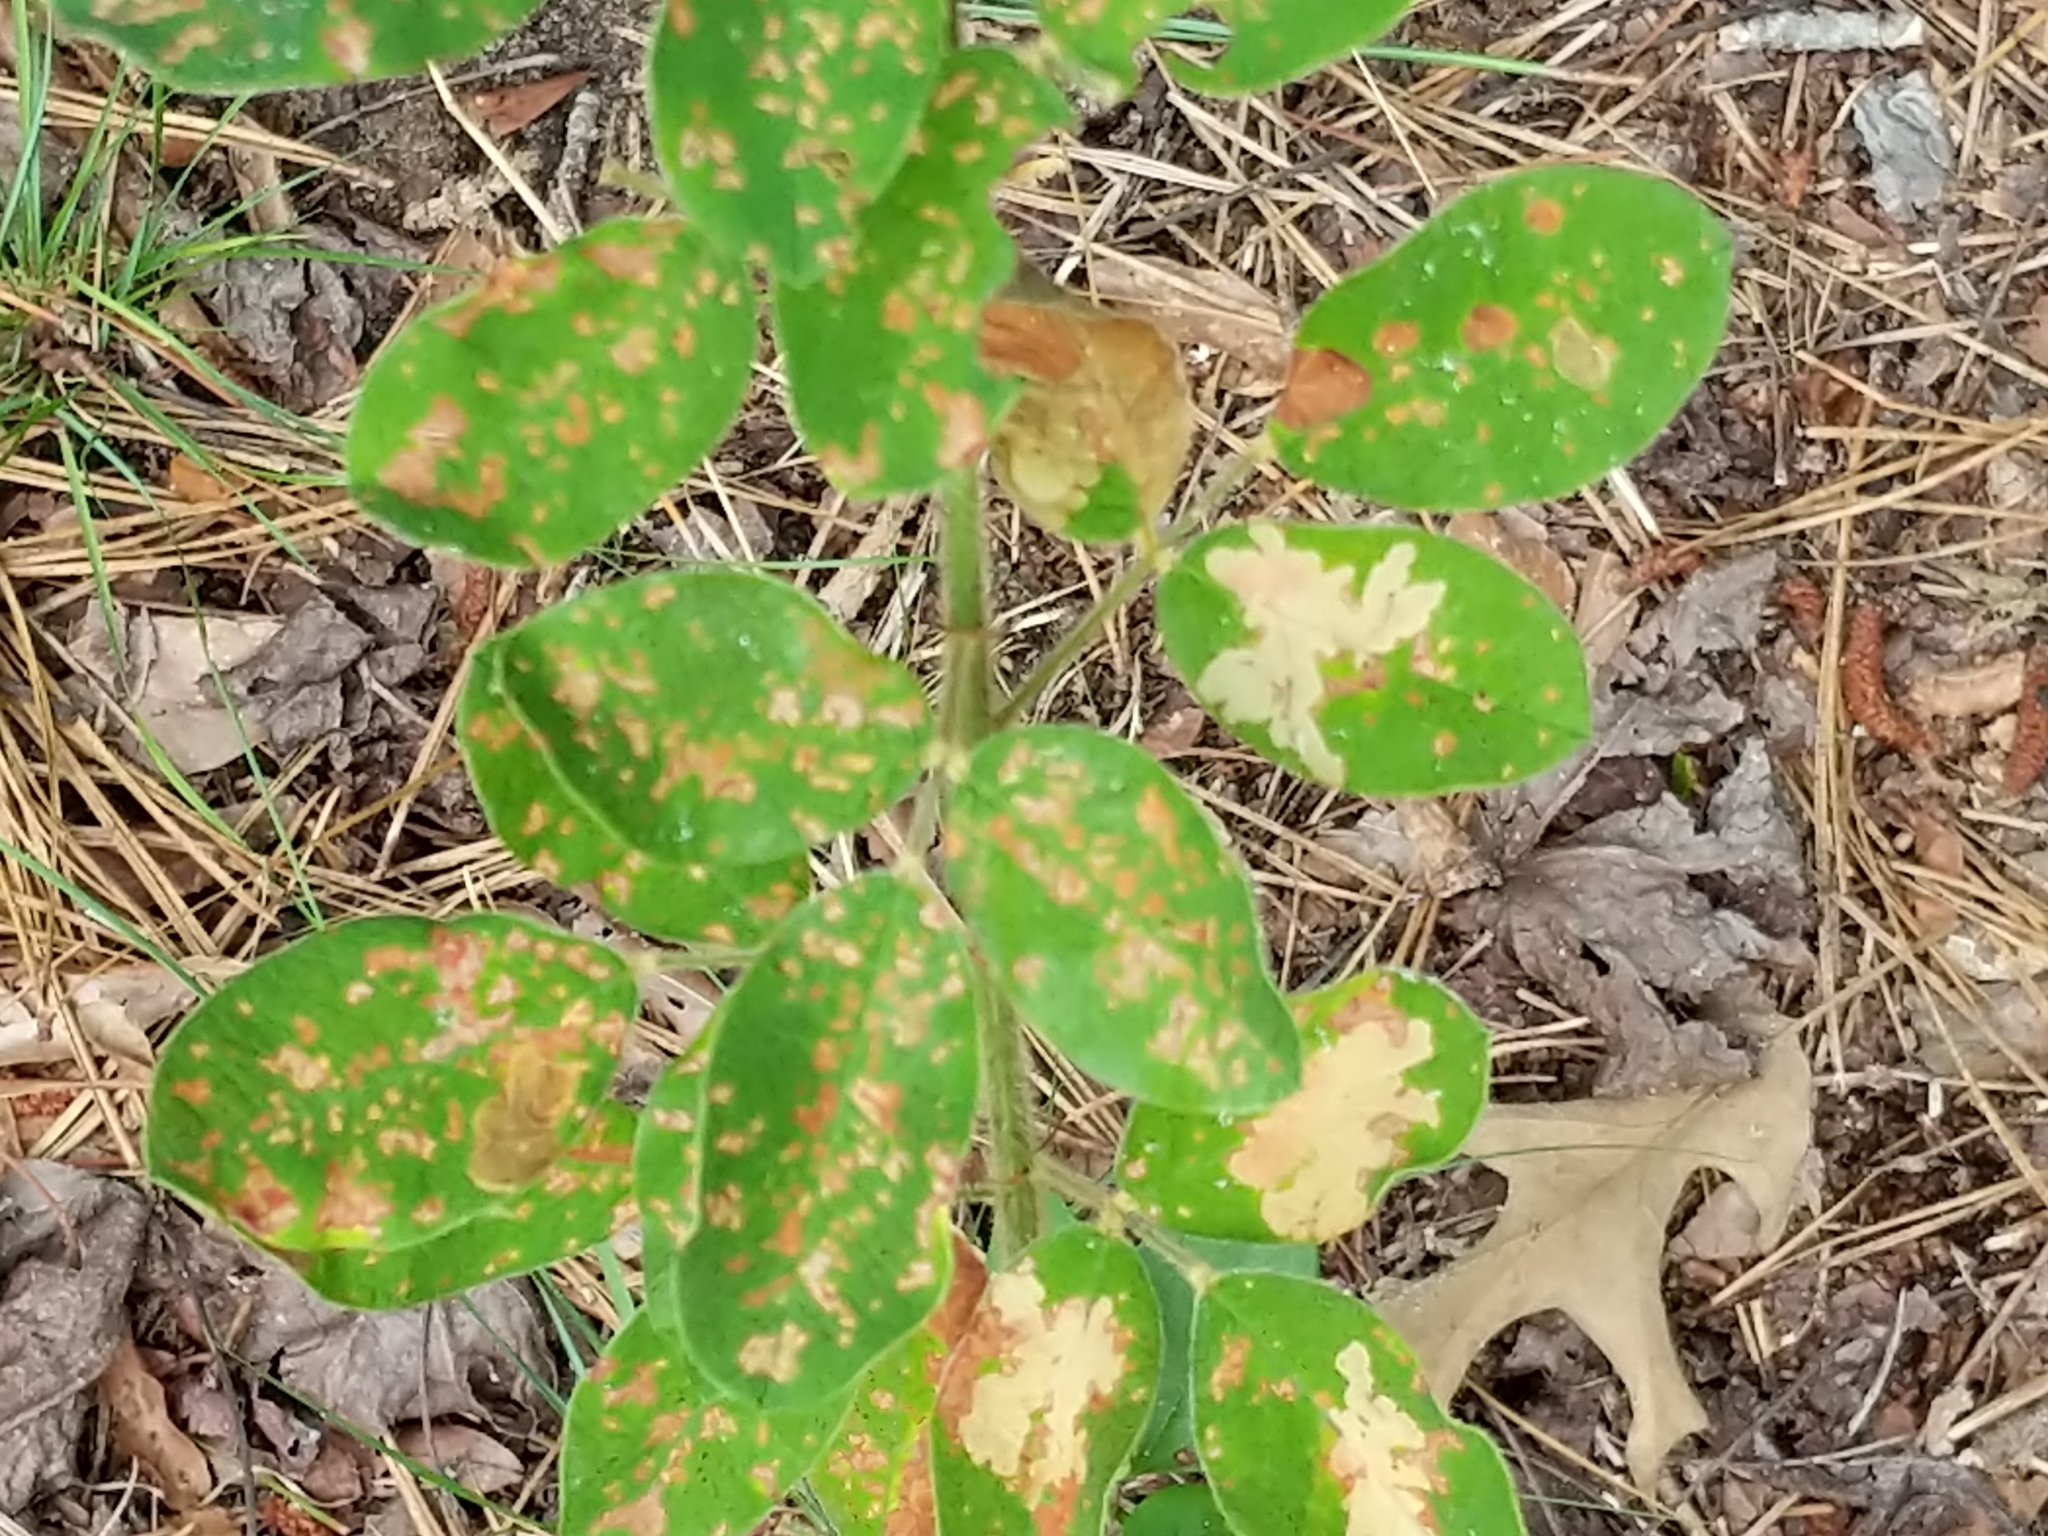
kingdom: Plantae
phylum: Tracheophyta
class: Magnoliopsida
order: Fabales
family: Fabaceae
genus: Lespedeza
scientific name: Lespedeza hirta
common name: Hairy lespedeza
